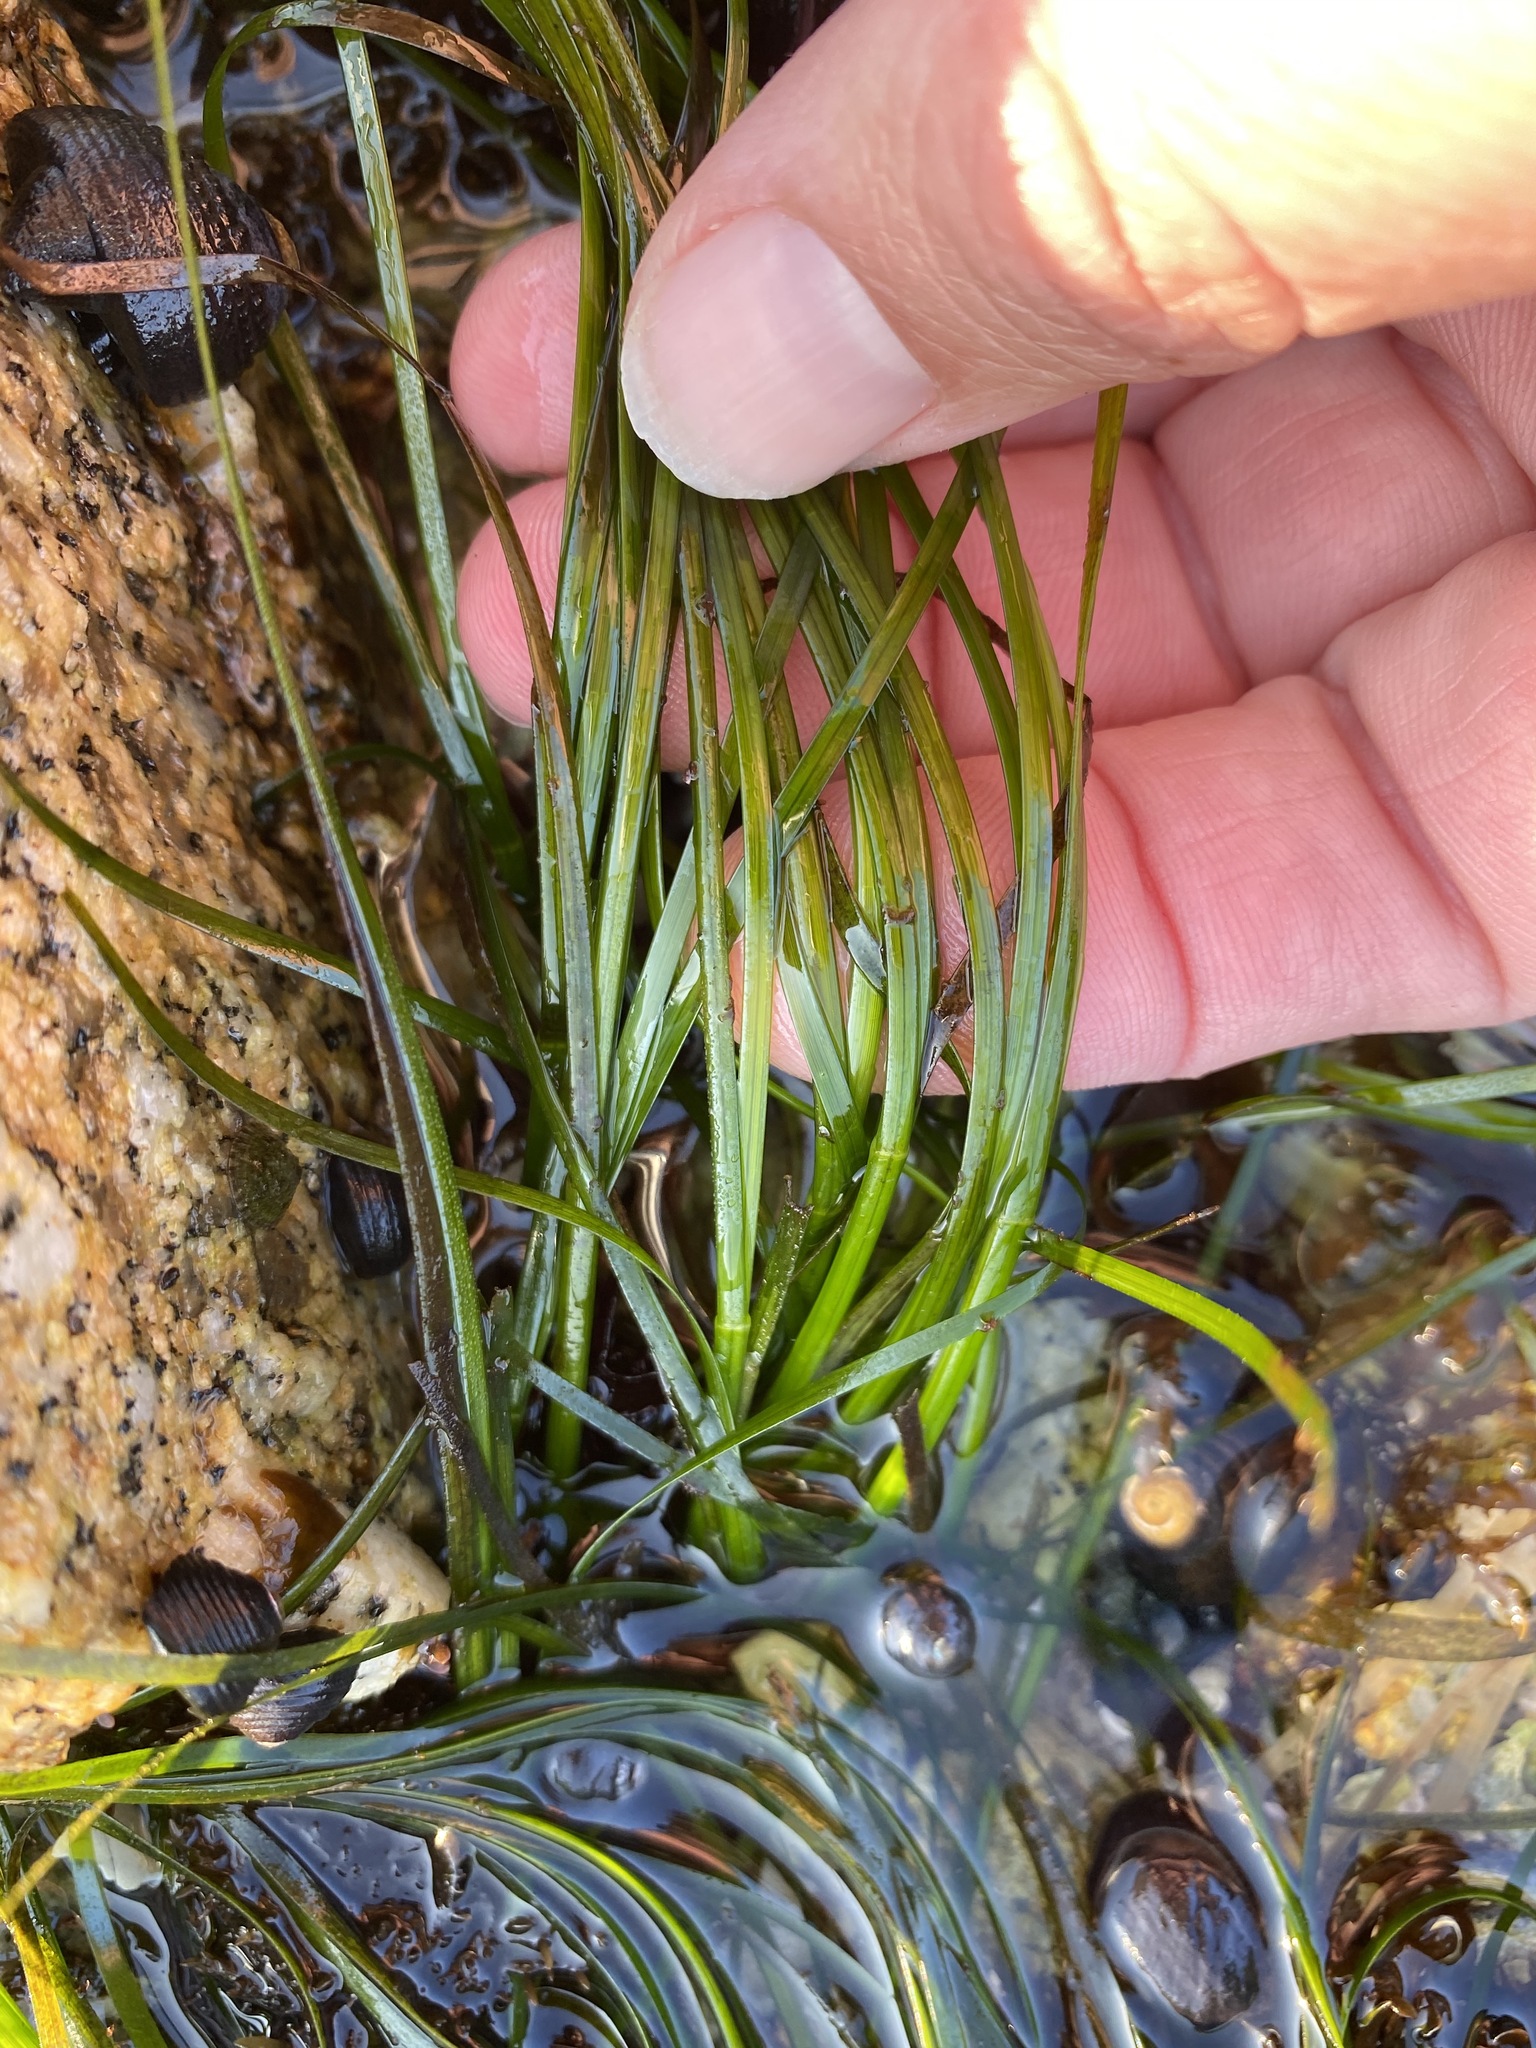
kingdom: Plantae
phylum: Tracheophyta
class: Liliopsida
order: Alismatales
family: Zosteraceae
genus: Phyllospadix
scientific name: Phyllospadix torreyi
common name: Surfgrass
